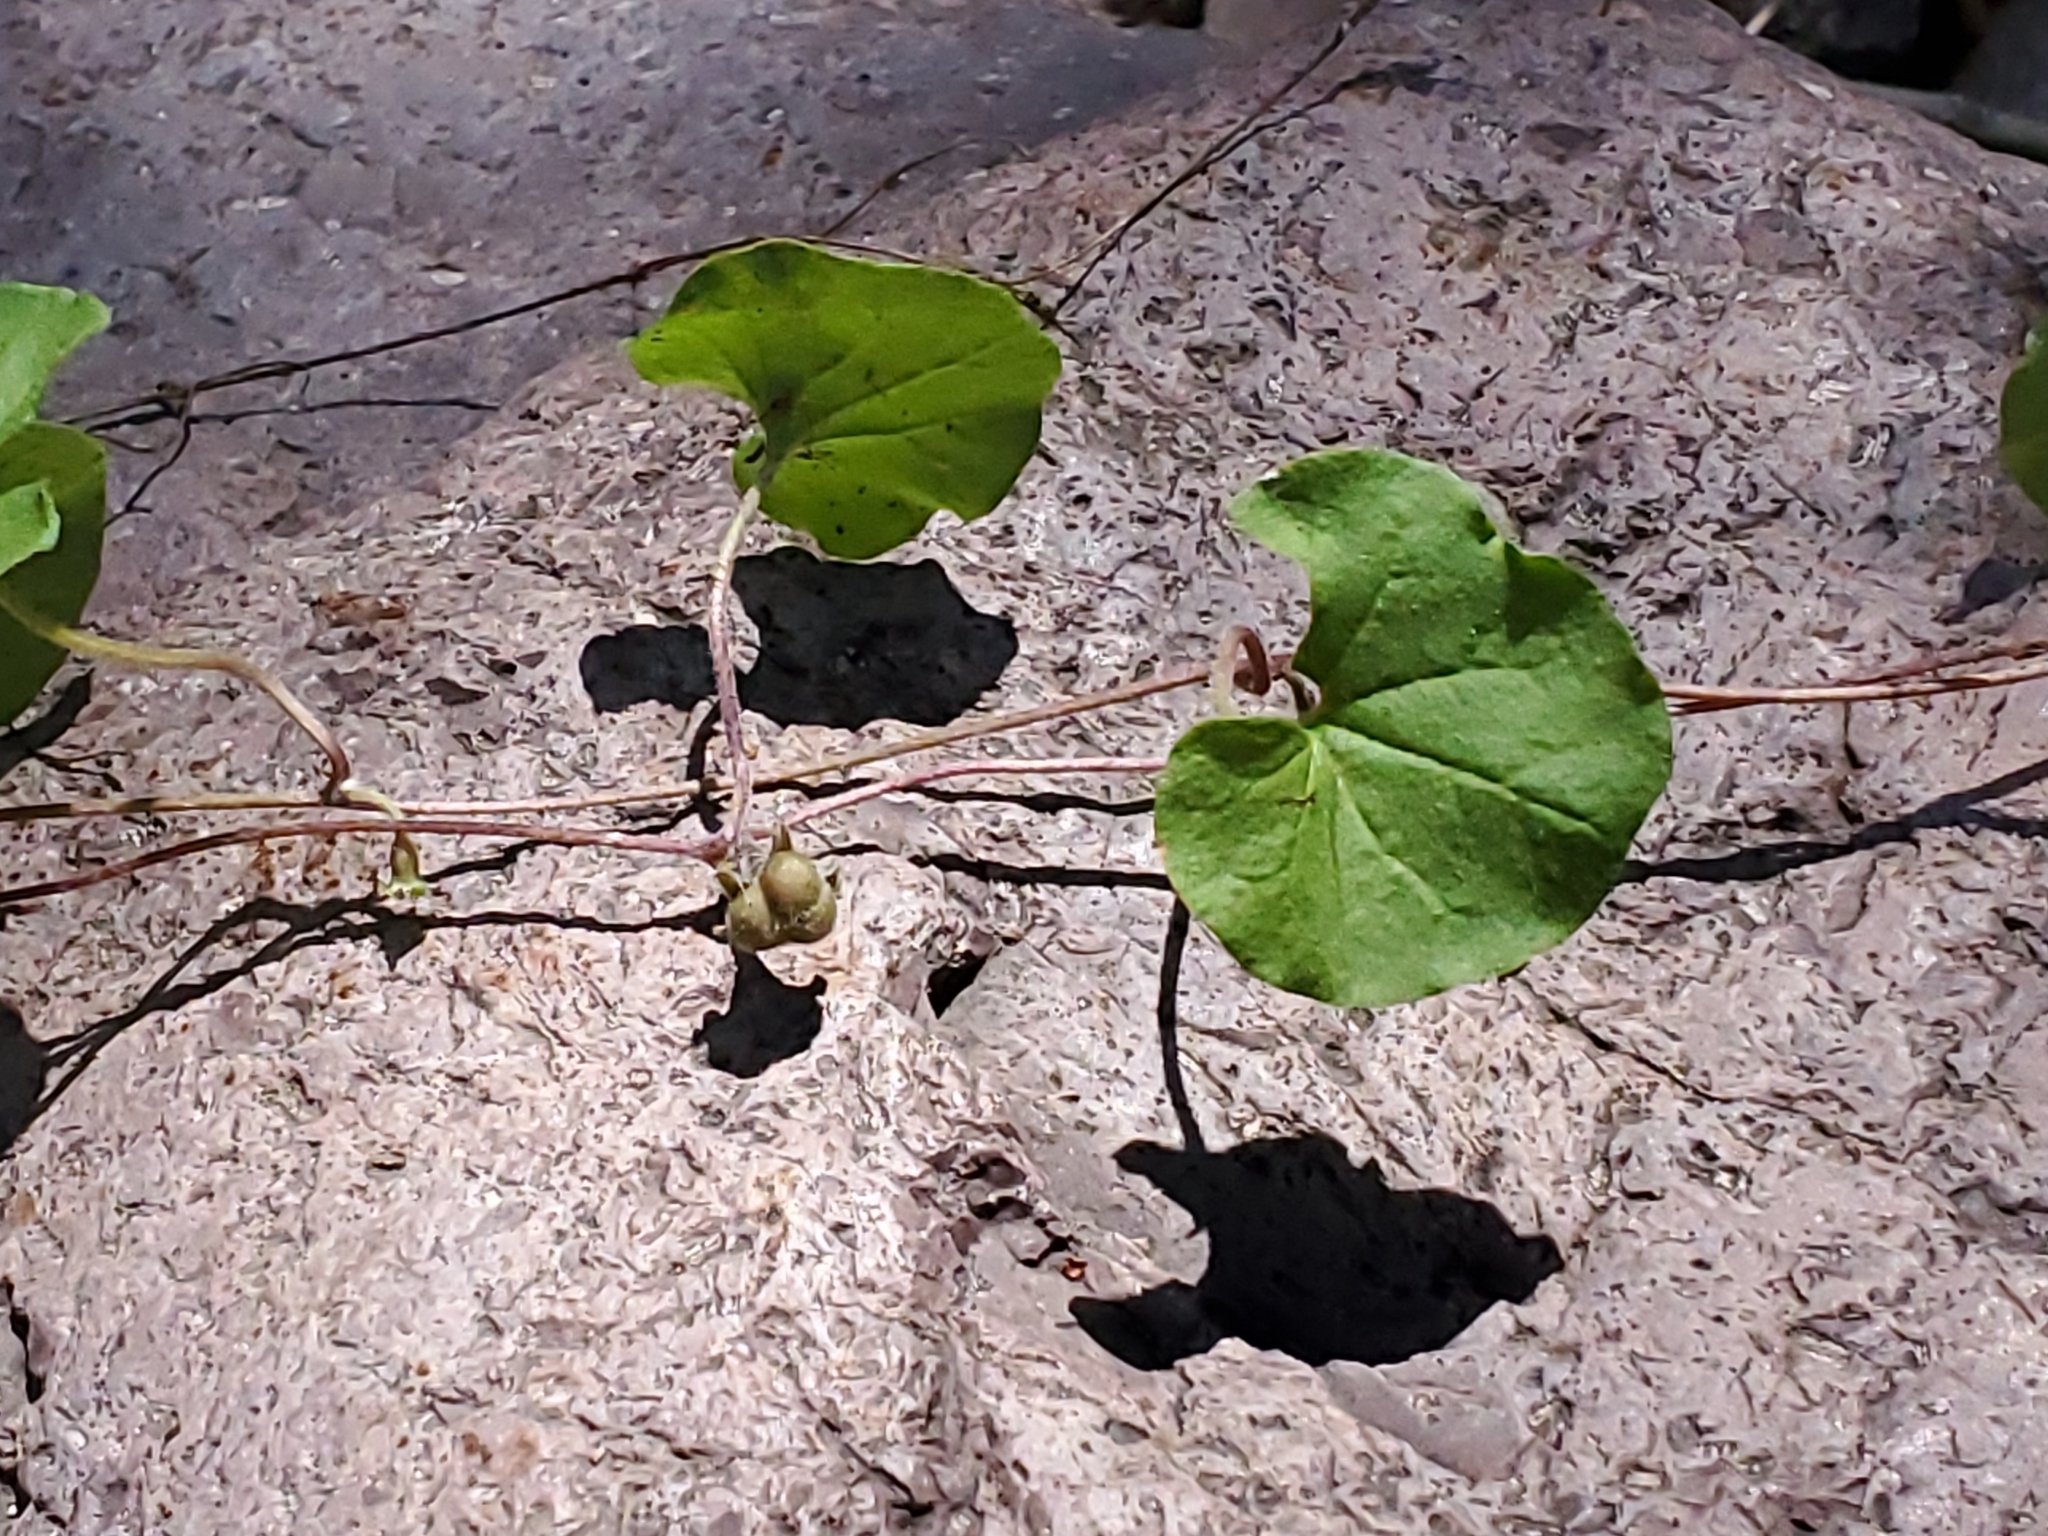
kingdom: Plantae
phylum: Tracheophyta
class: Magnoliopsida
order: Solanales
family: Convolvulaceae
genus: Dichondra
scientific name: Dichondra brachypoda
